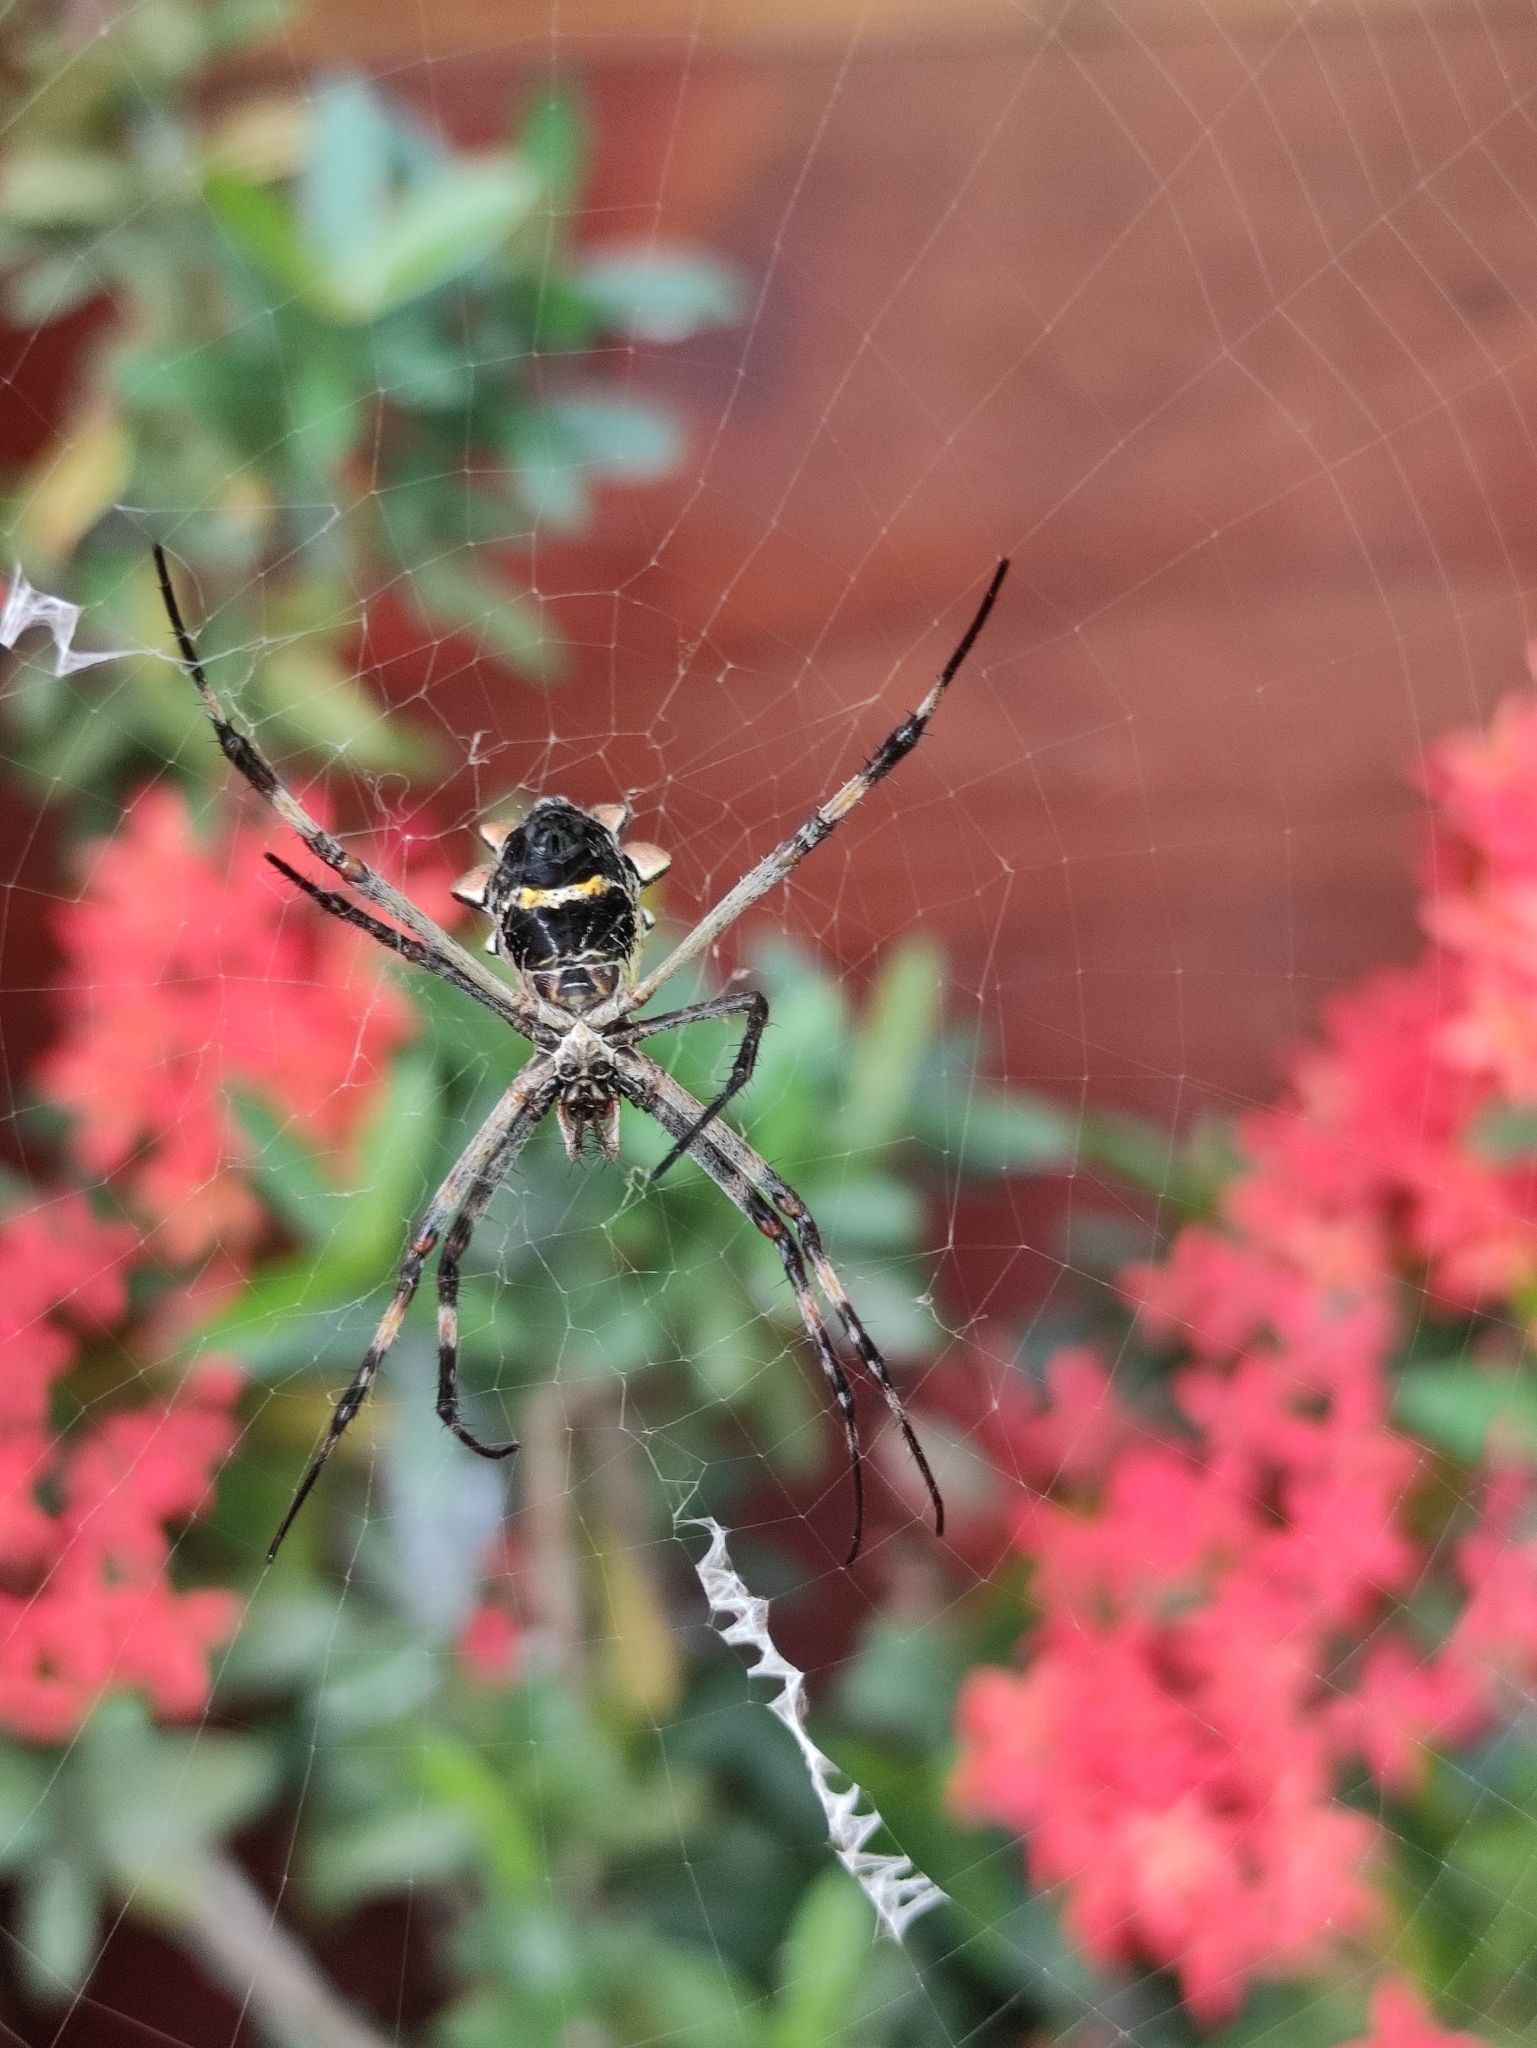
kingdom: Animalia
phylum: Arthropoda
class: Arachnida
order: Araneae
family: Araneidae
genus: Argiope
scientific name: Argiope argentata
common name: Orb weavers
